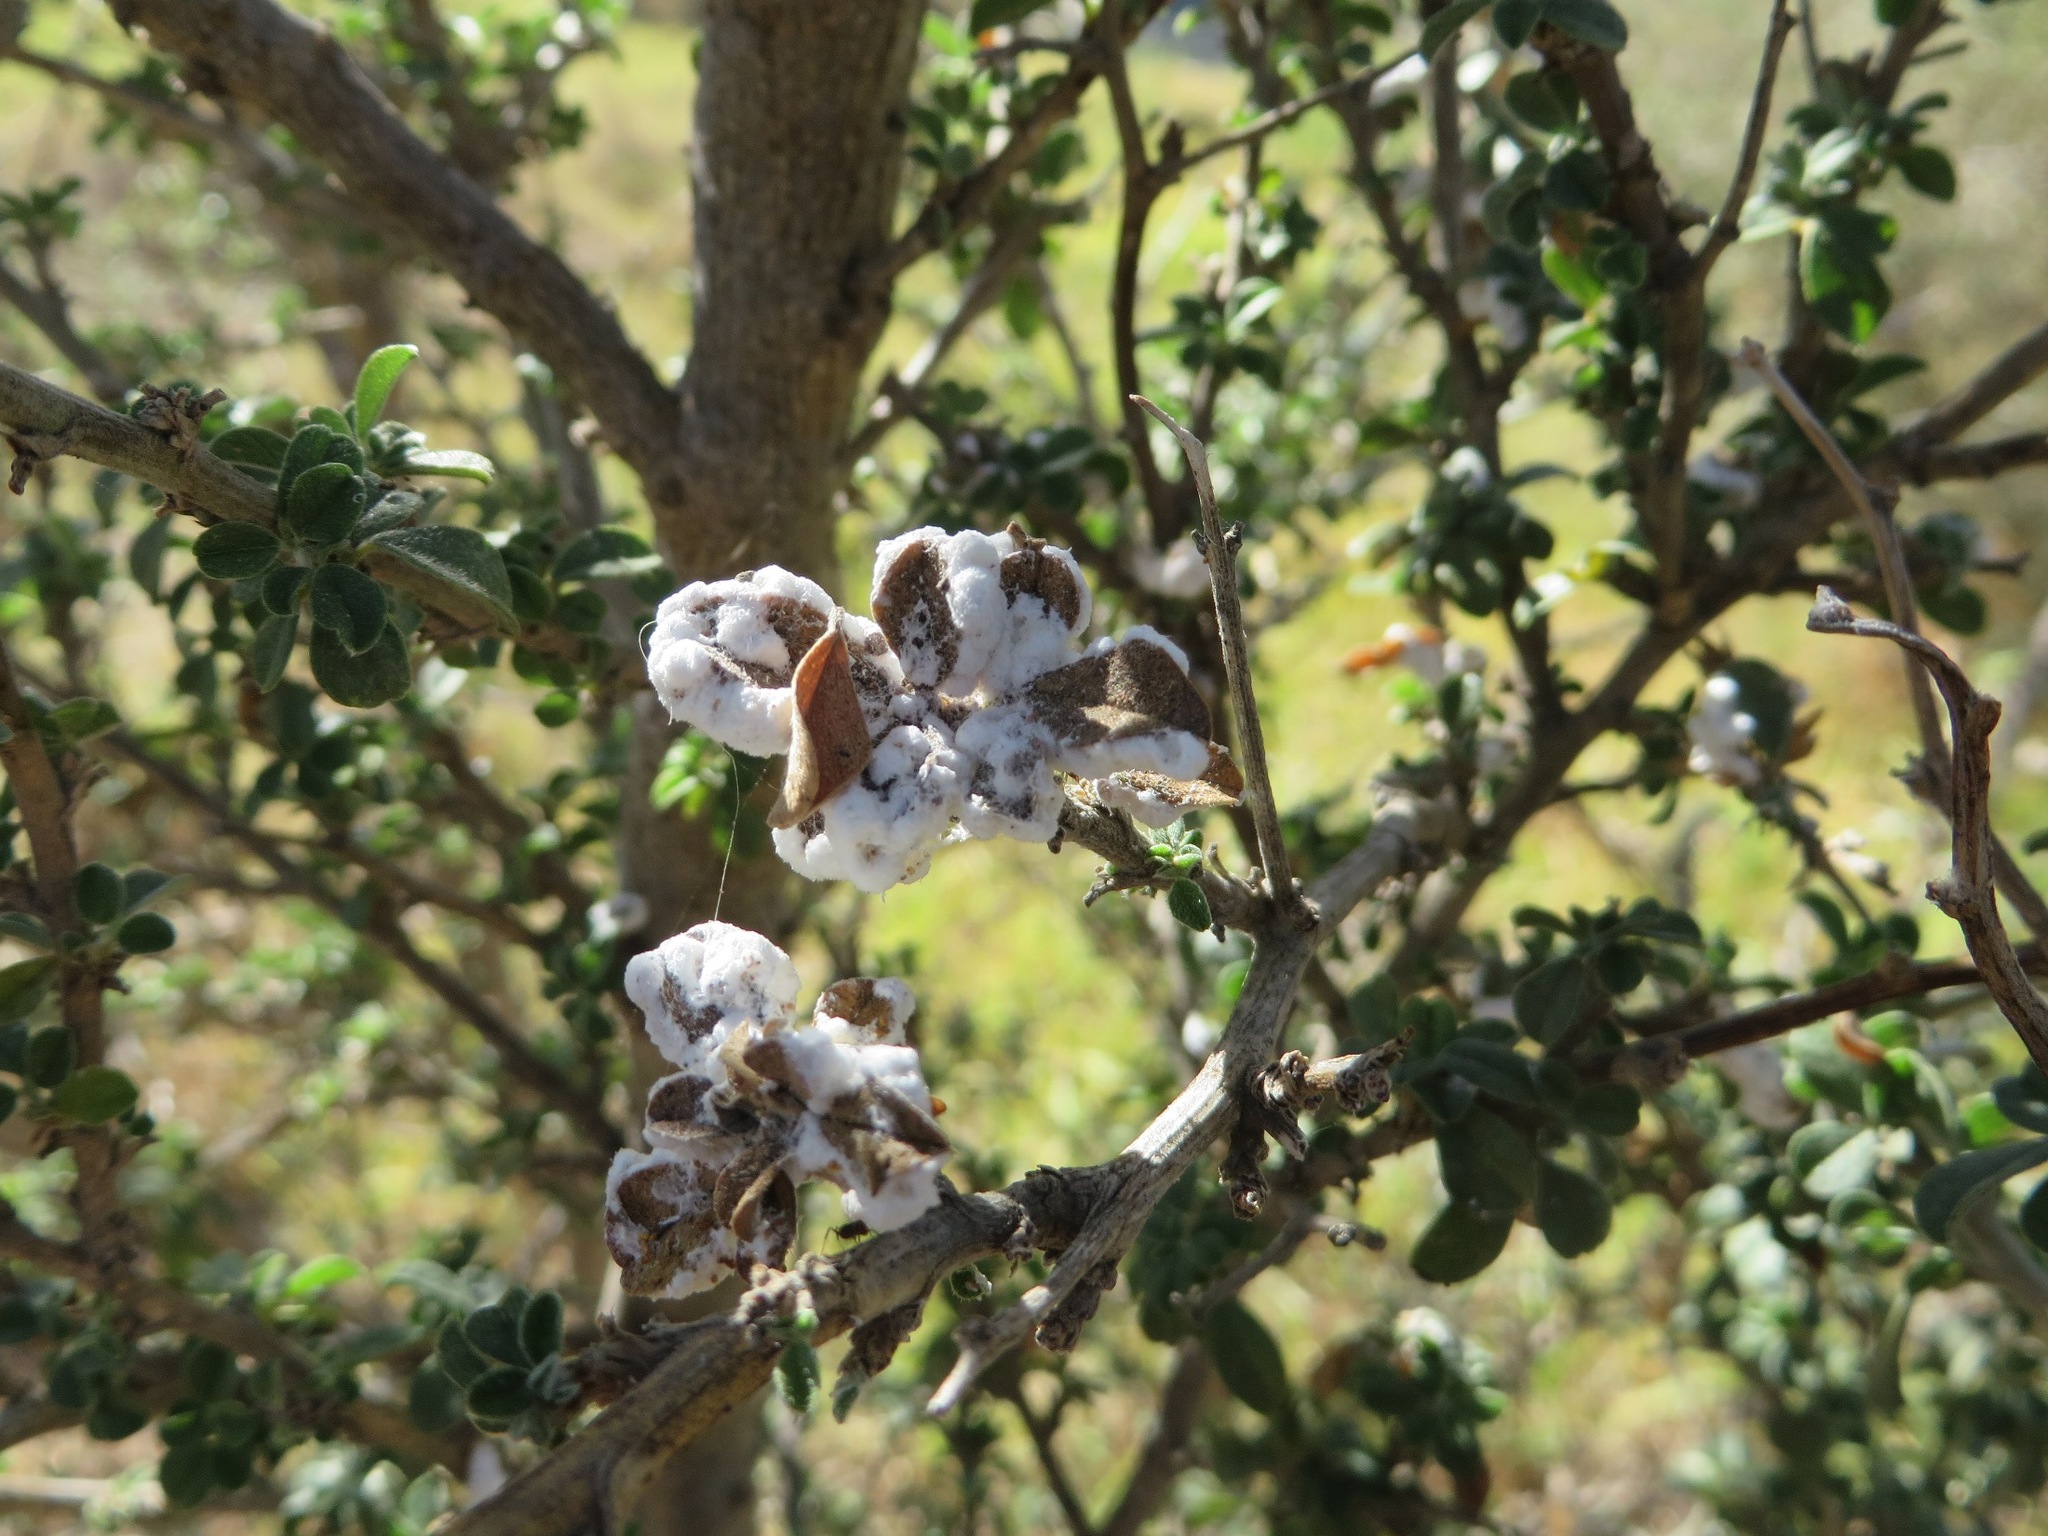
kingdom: Protozoa
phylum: Mycetozoa
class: Myxomycetes
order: Physarales
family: Physaraceae
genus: Physarum
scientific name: Physarum cinereum
